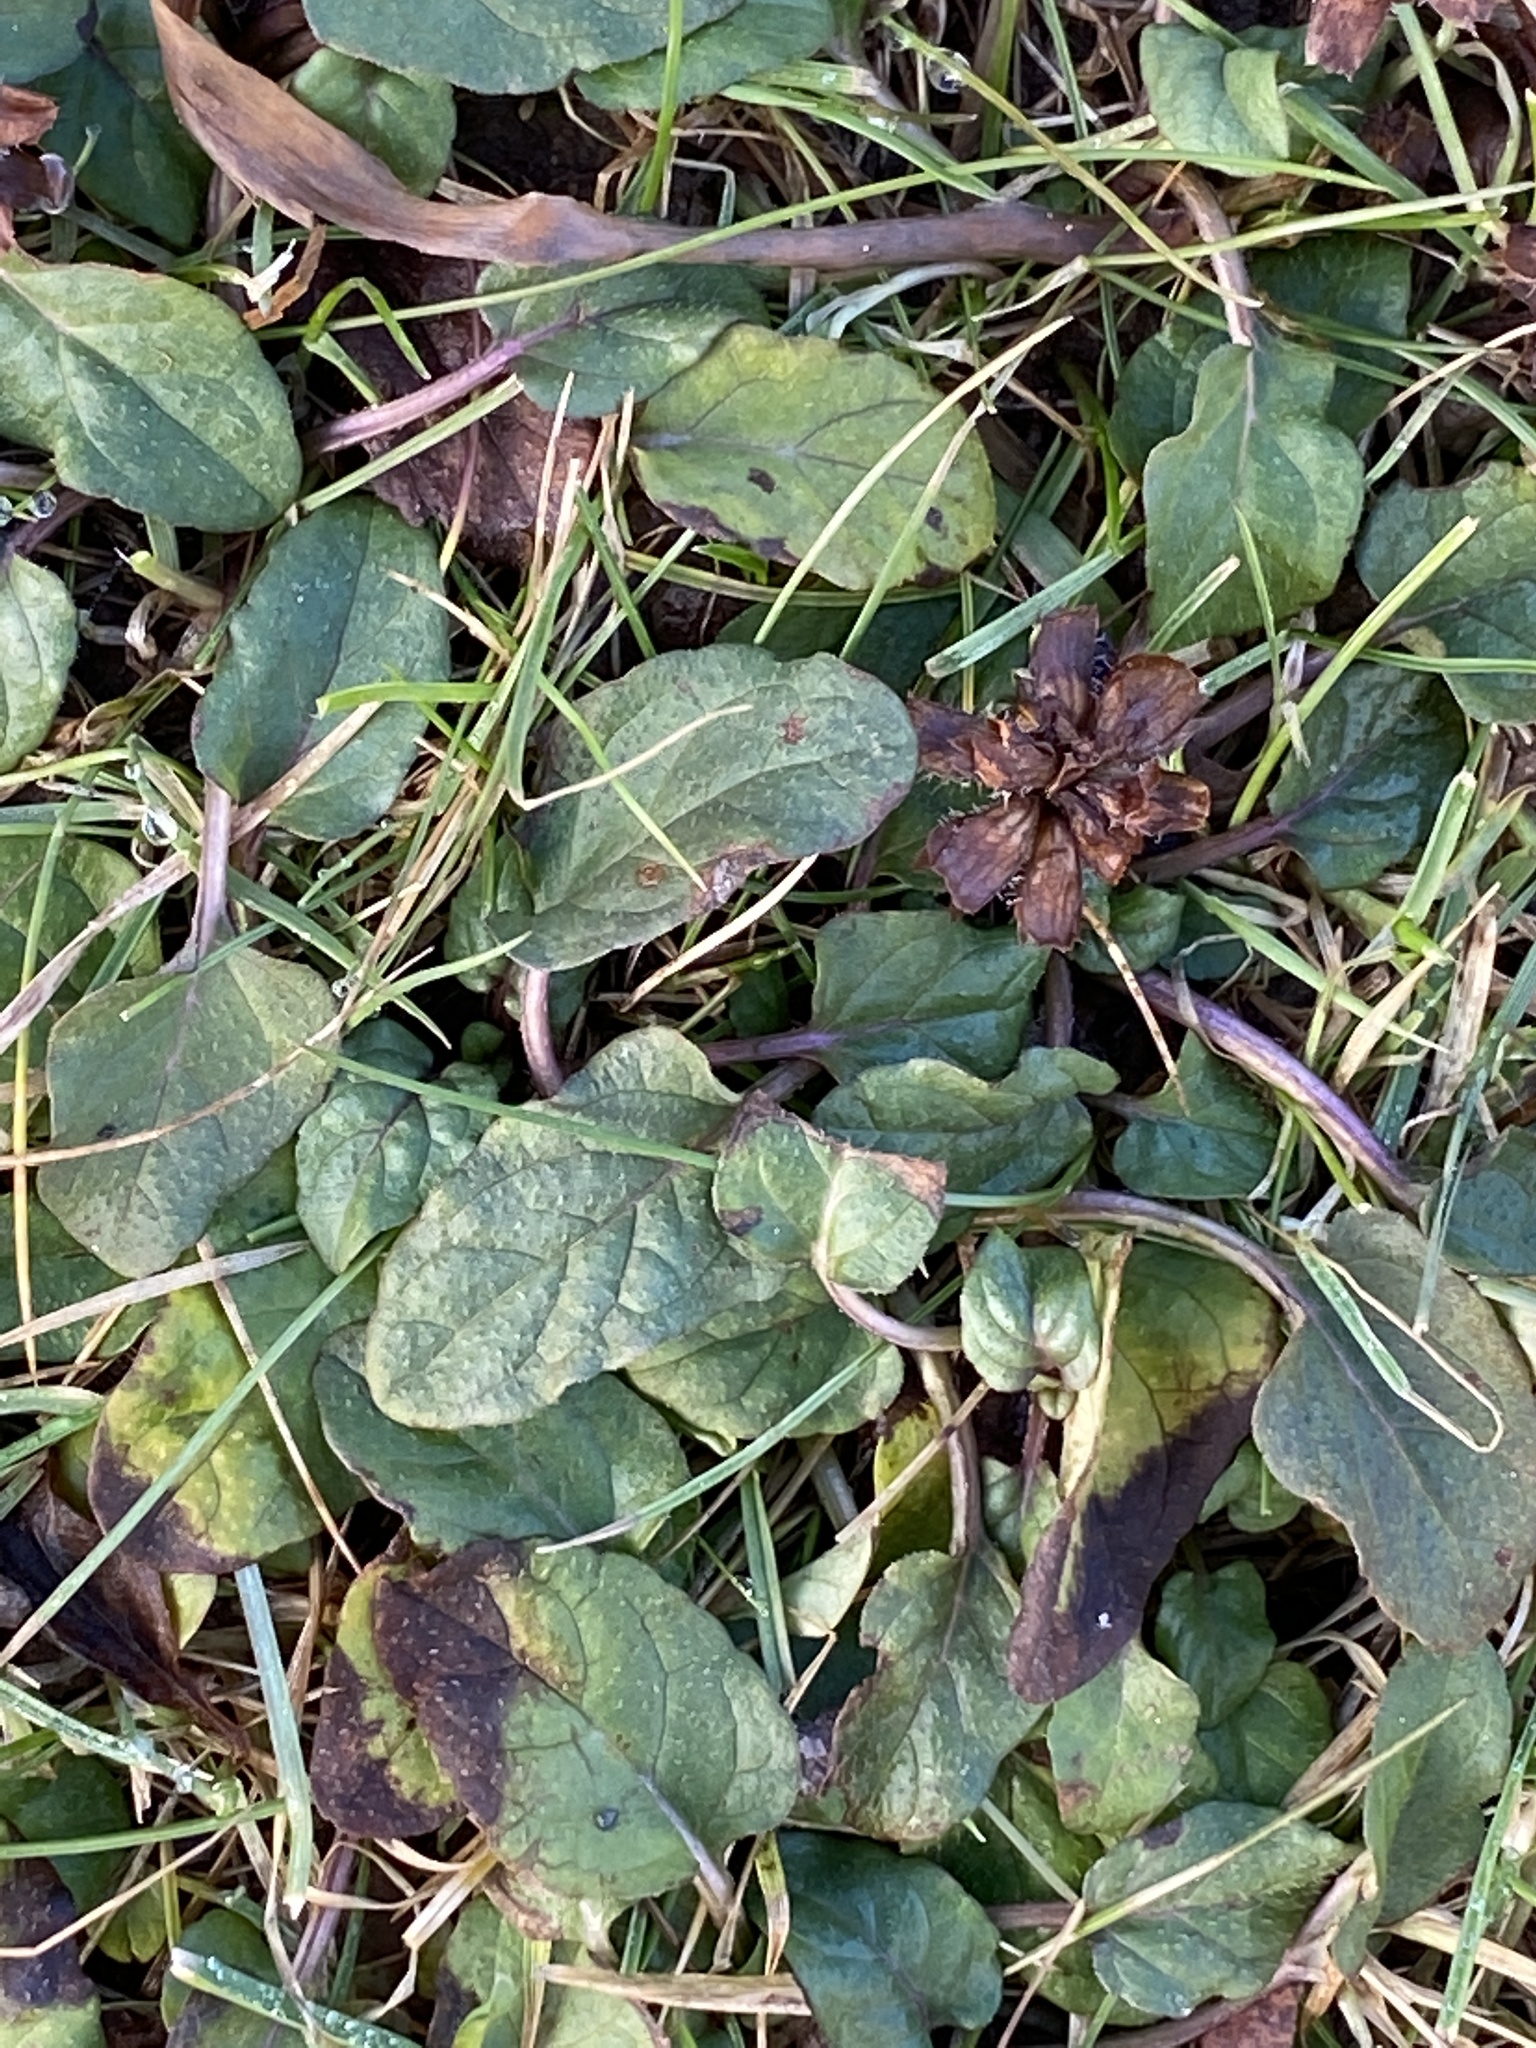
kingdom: Plantae
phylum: Tracheophyta
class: Magnoliopsida
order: Lamiales
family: Lamiaceae
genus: Prunella
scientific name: Prunella vulgaris
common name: Heal-all
